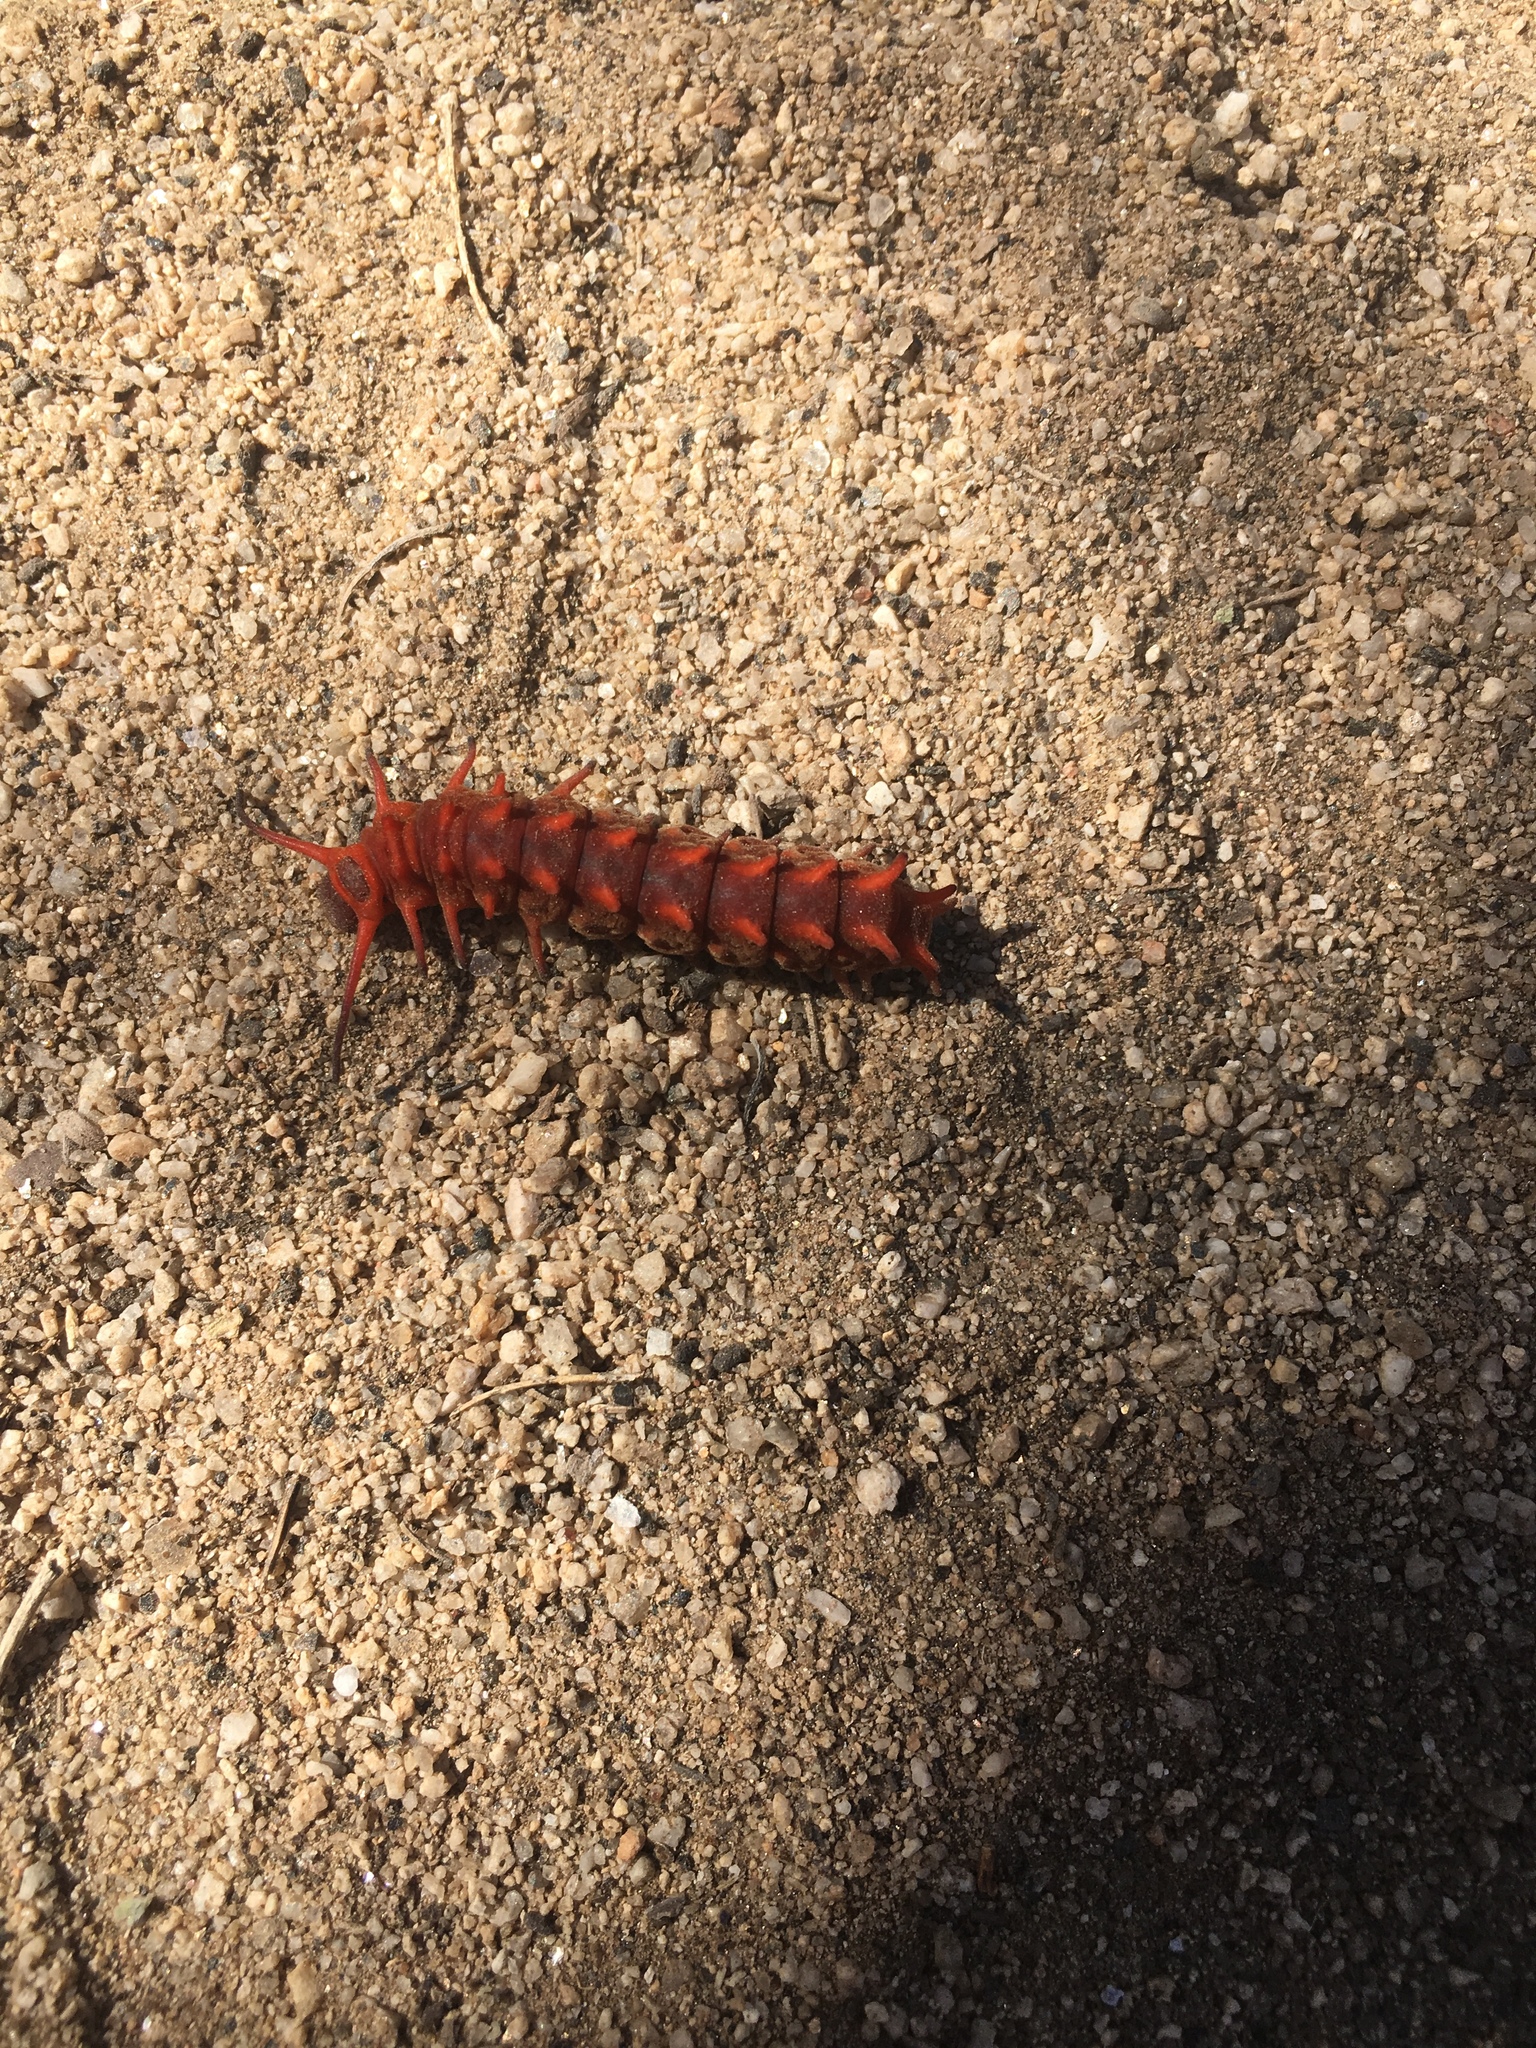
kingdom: Animalia
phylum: Arthropoda
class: Insecta
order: Lepidoptera
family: Papilionidae
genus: Battus
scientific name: Battus philenor
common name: Pipevine swallowtail
